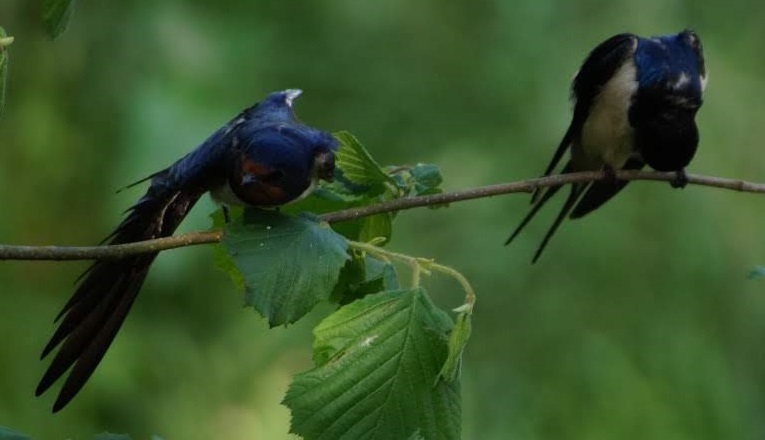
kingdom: Animalia
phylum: Chordata
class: Aves
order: Passeriformes
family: Hirundinidae
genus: Hirundo
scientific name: Hirundo rustica
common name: Barn swallow
